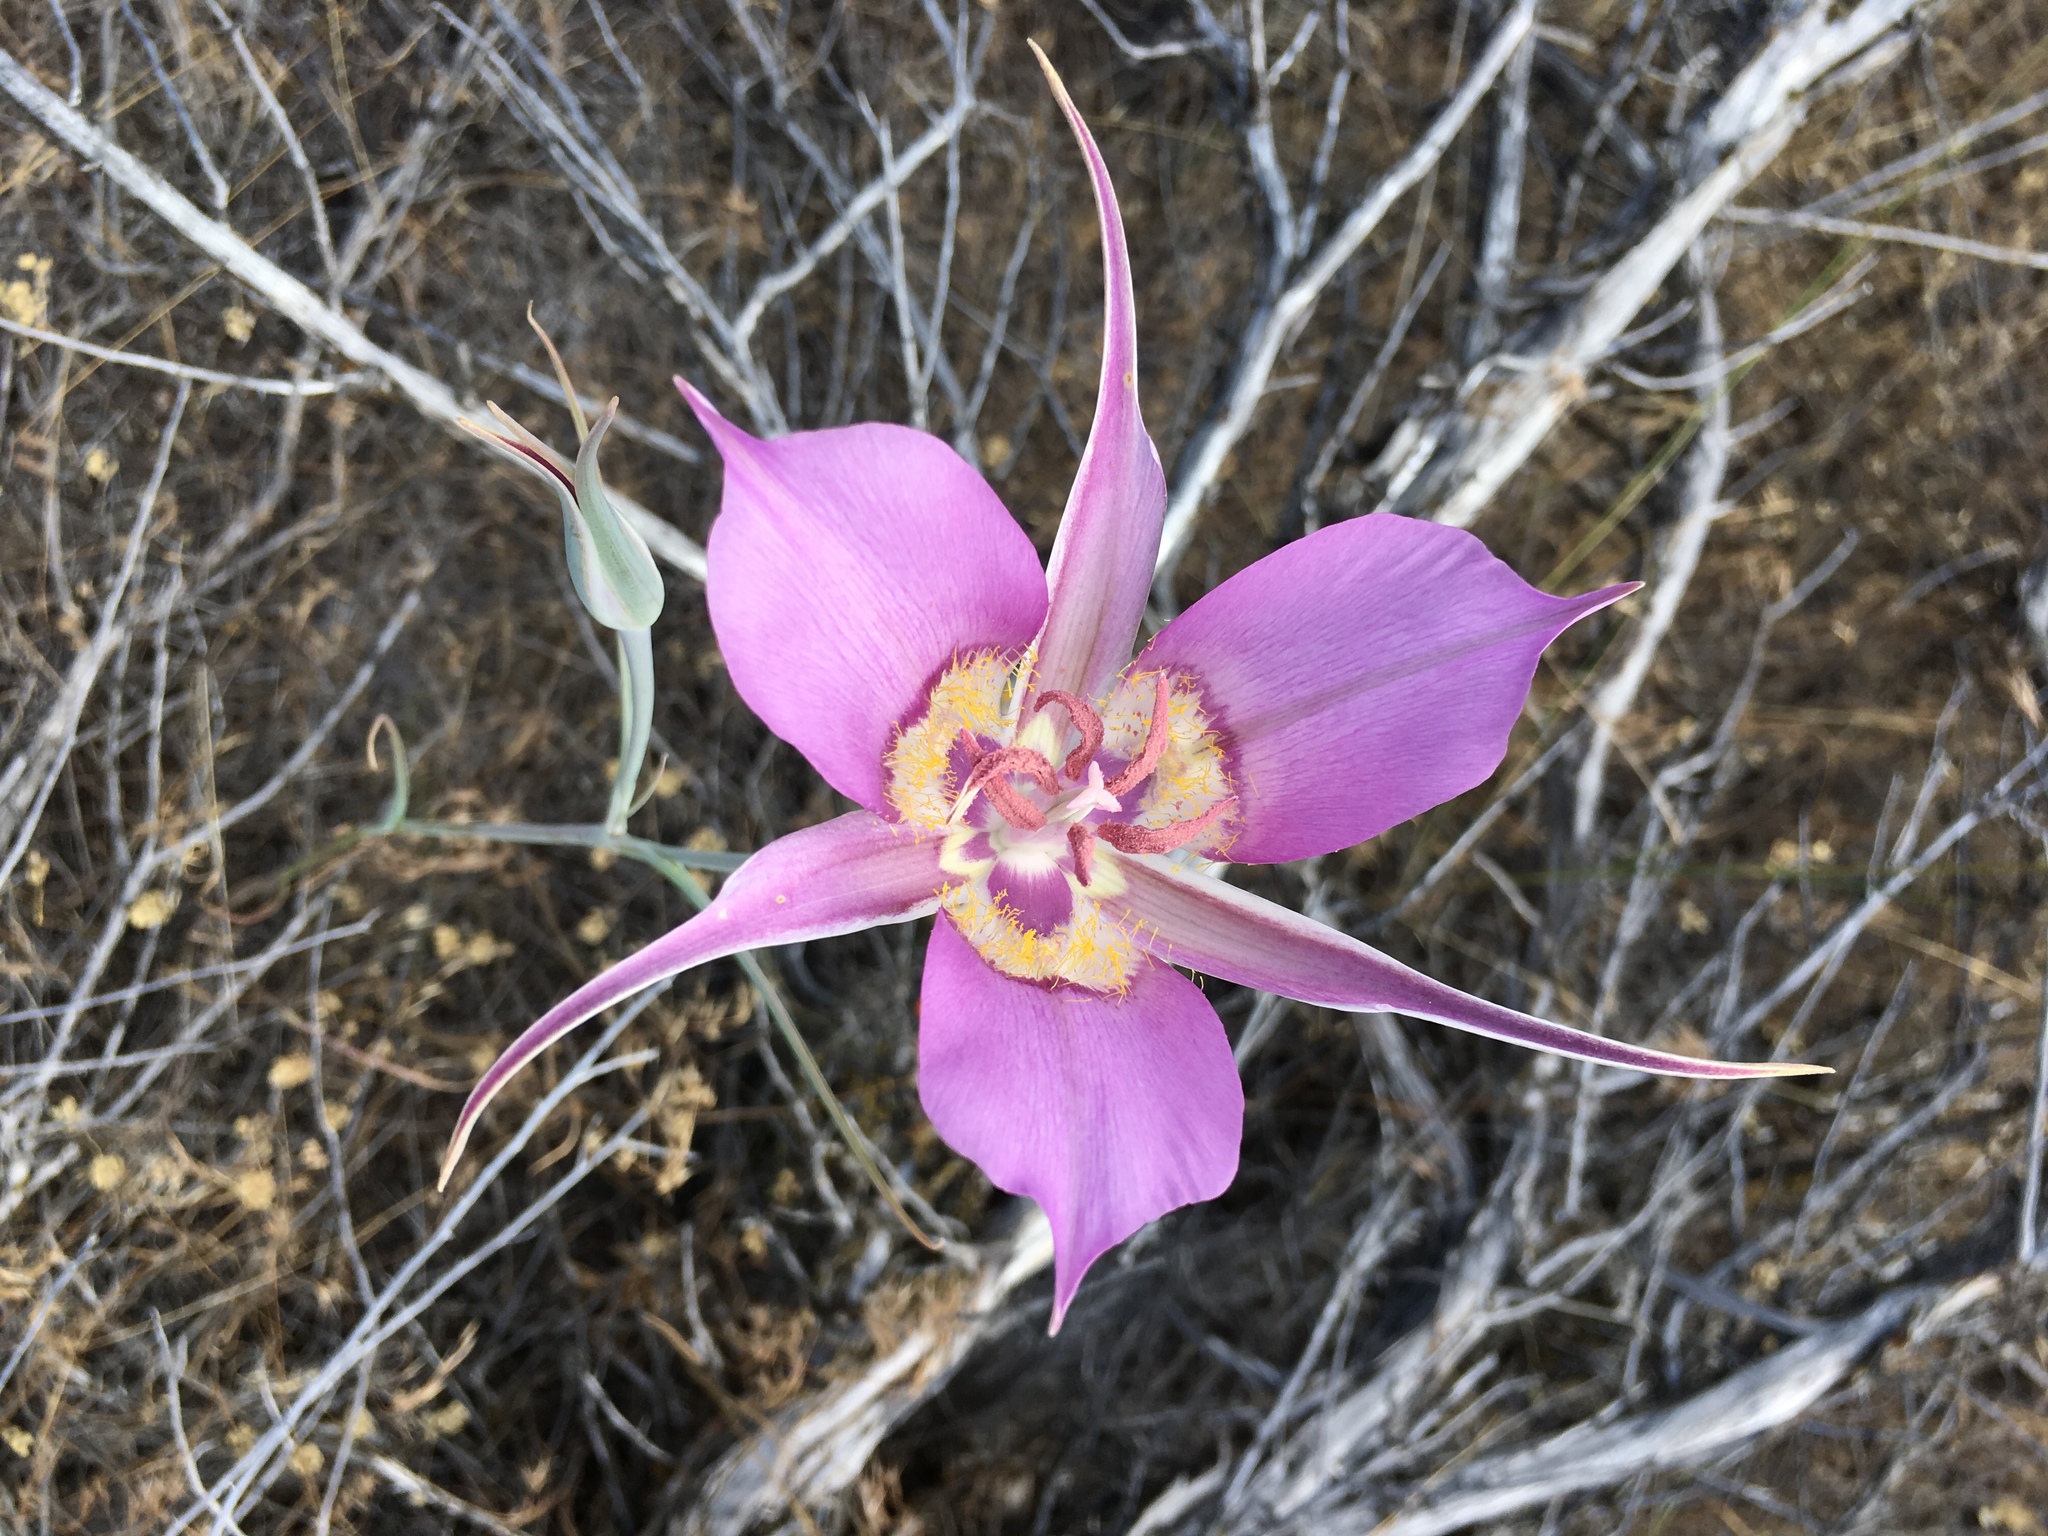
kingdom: Plantae
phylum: Tracheophyta
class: Liliopsida
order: Liliales
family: Liliaceae
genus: Calochortus
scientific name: Calochortus macrocarpus
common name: Green-band mariposa lily
